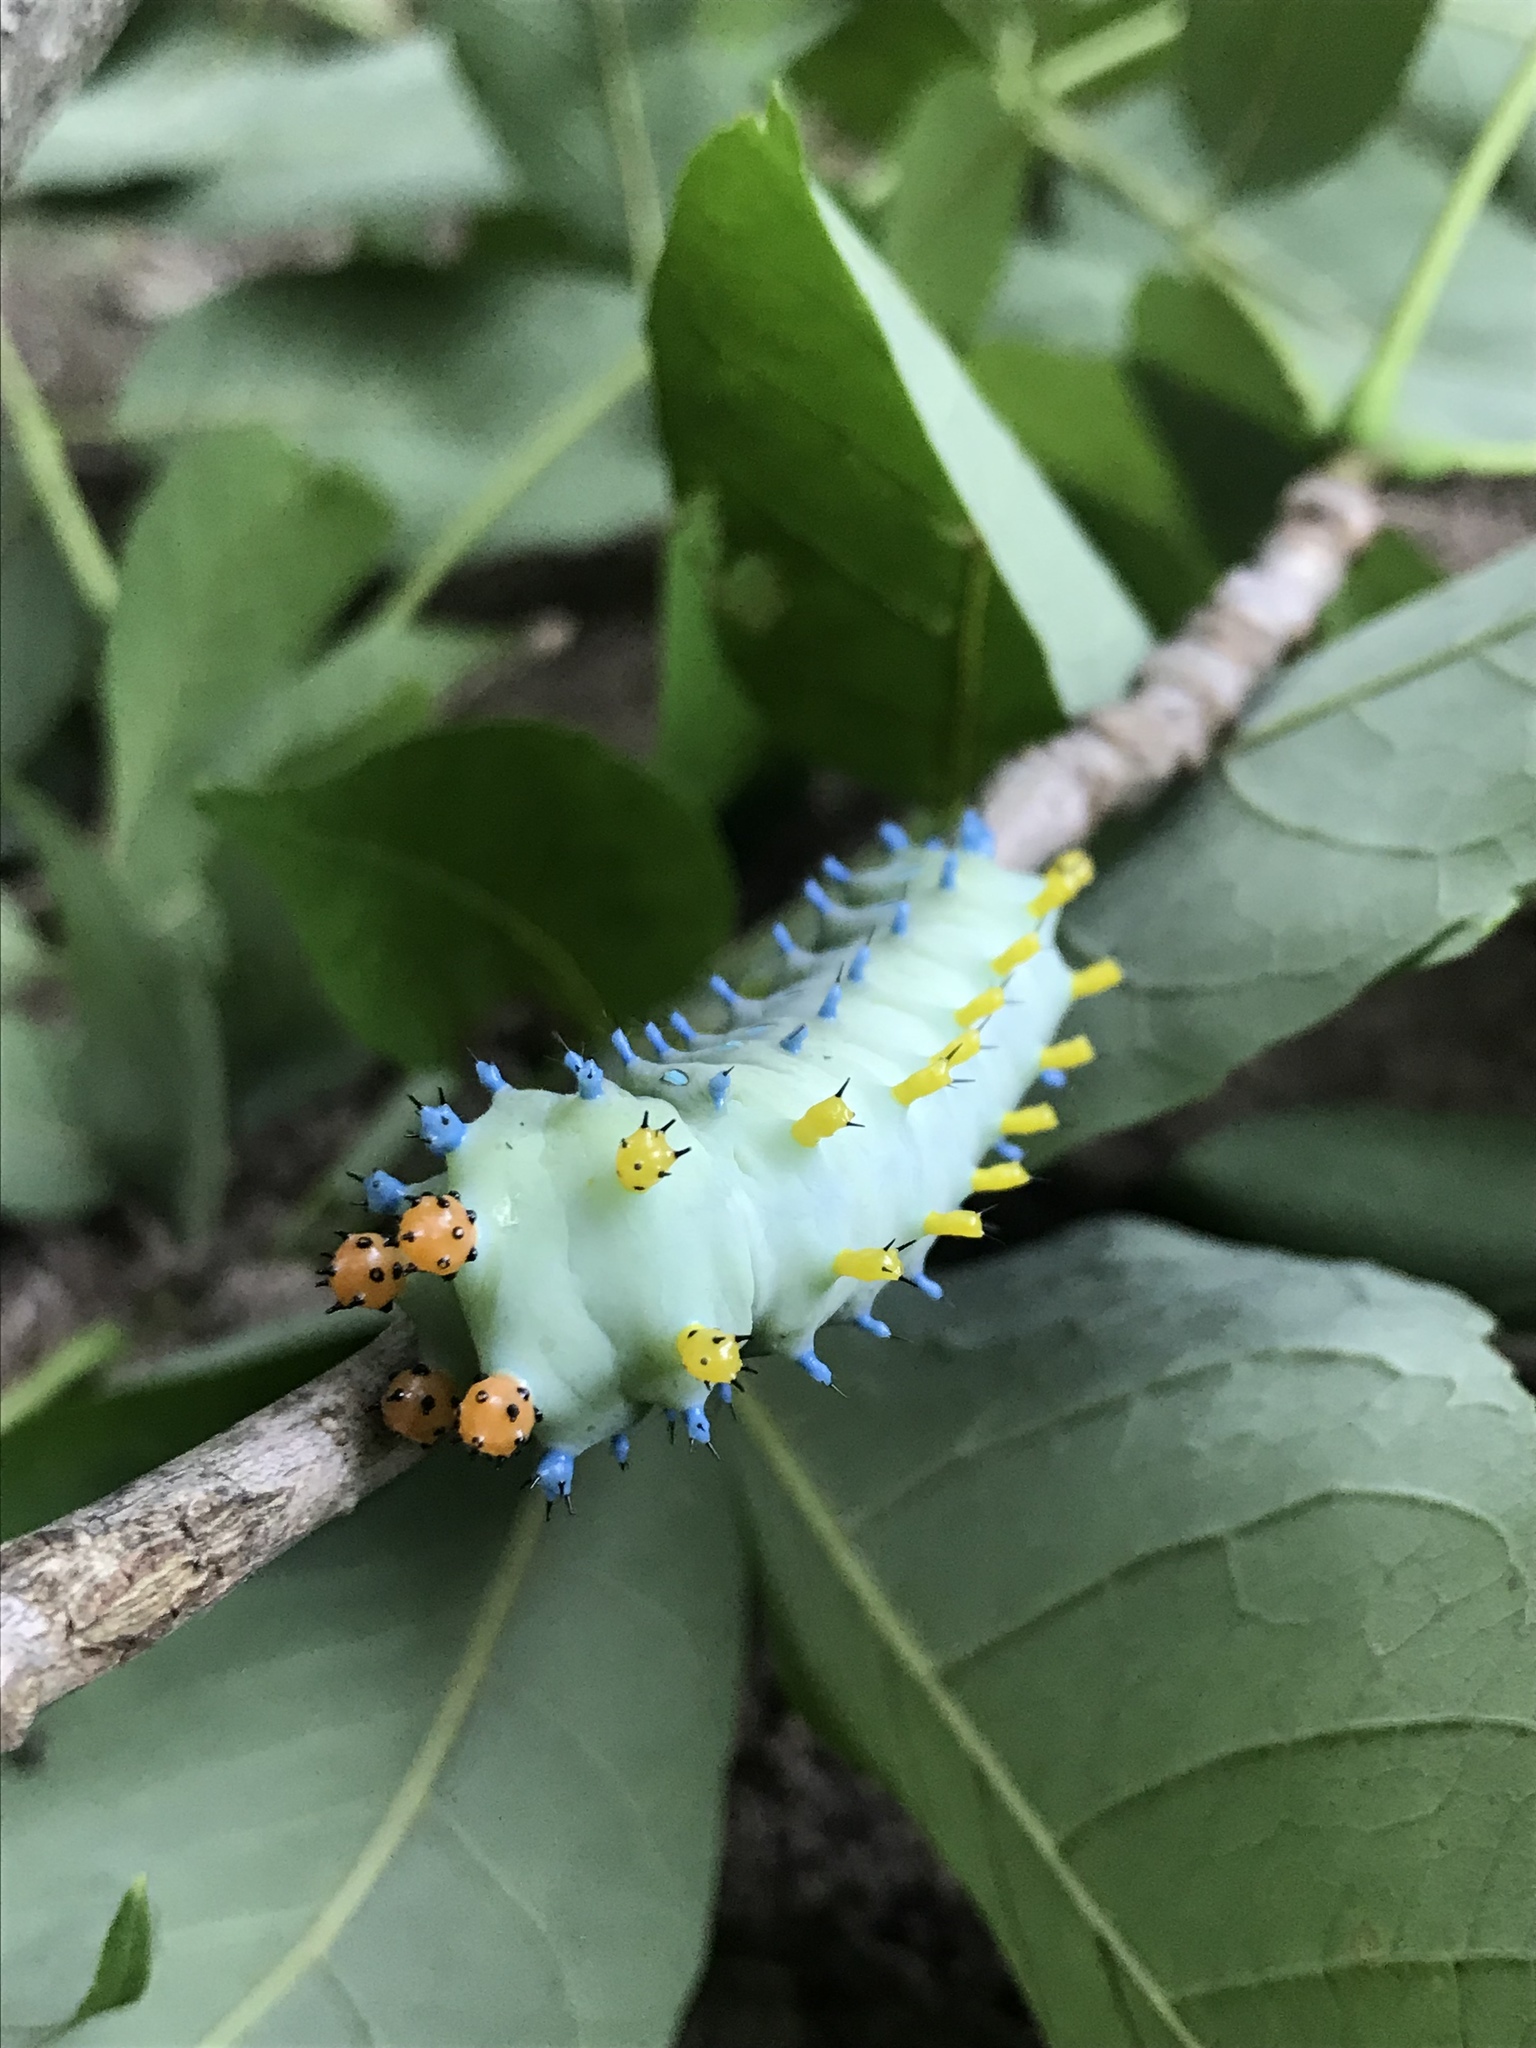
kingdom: Animalia
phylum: Arthropoda
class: Insecta
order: Lepidoptera
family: Saturniidae
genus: Hyalophora
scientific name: Hyalophora cecropia
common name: Cecropia silkmoth
